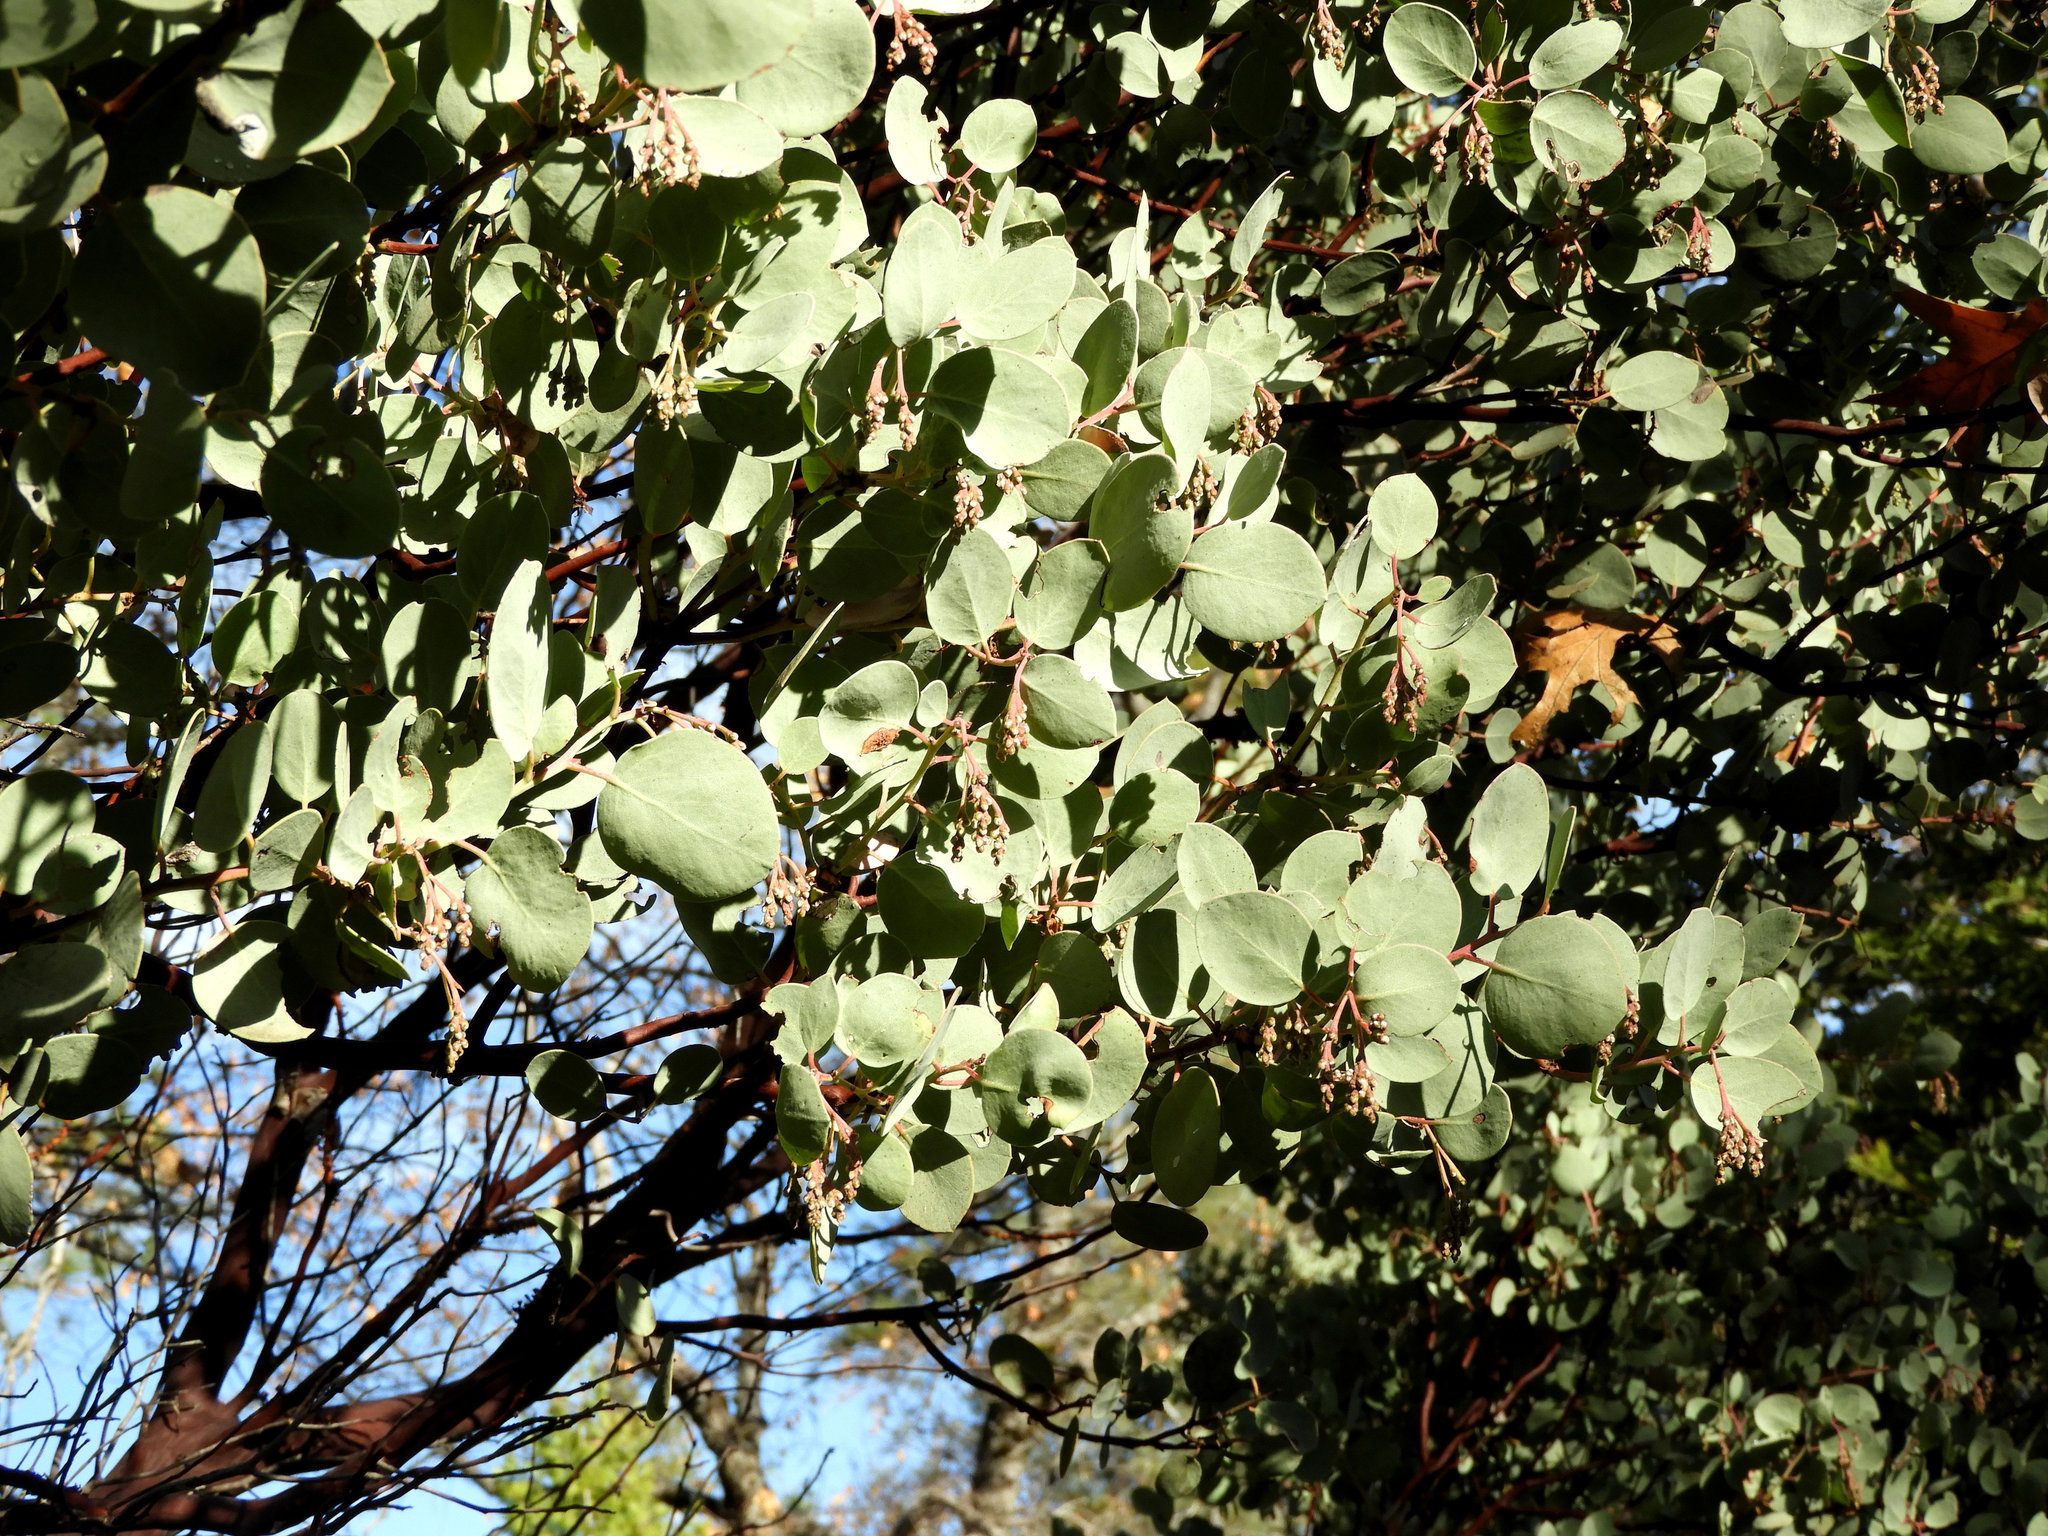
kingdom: Plantae
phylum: Tracheophyta
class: Magnoliopsida
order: Ericales
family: Ericaceae
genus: Arctostaphylos
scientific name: Arctostaphylos viscida
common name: White-leaf manzanita
